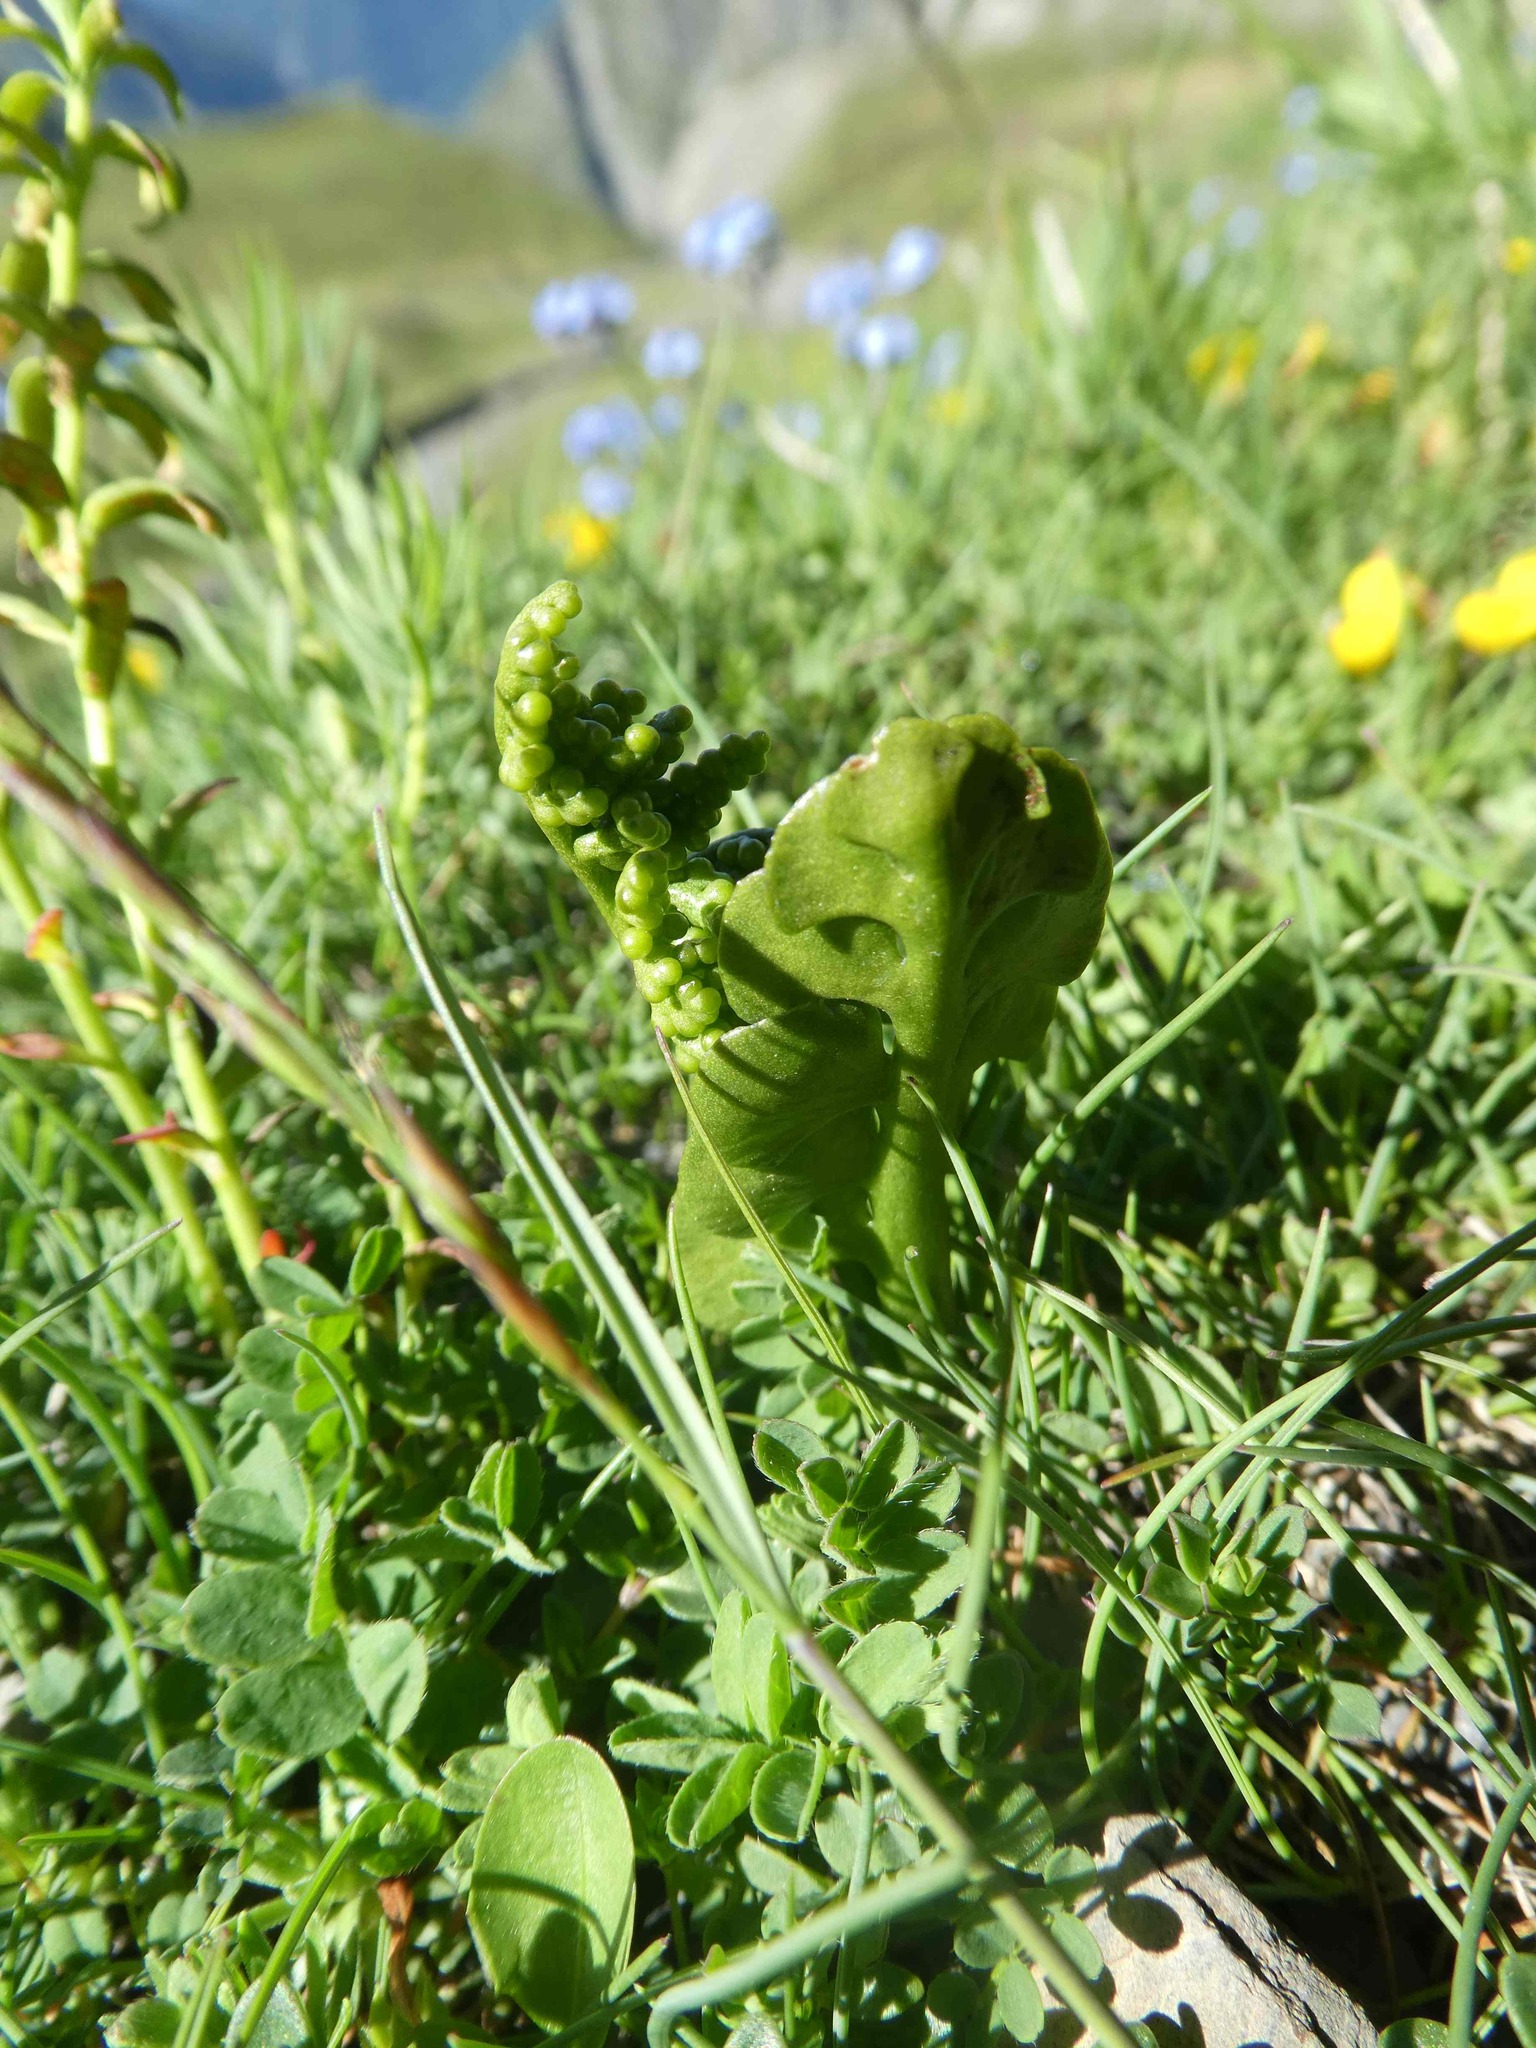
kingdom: Plantae
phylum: Tracheophyta
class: Polypodiopsida
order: Ophioglossales
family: Ophioglossaceae
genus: Botrychium
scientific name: Botrychium lunaria
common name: Moonwort
